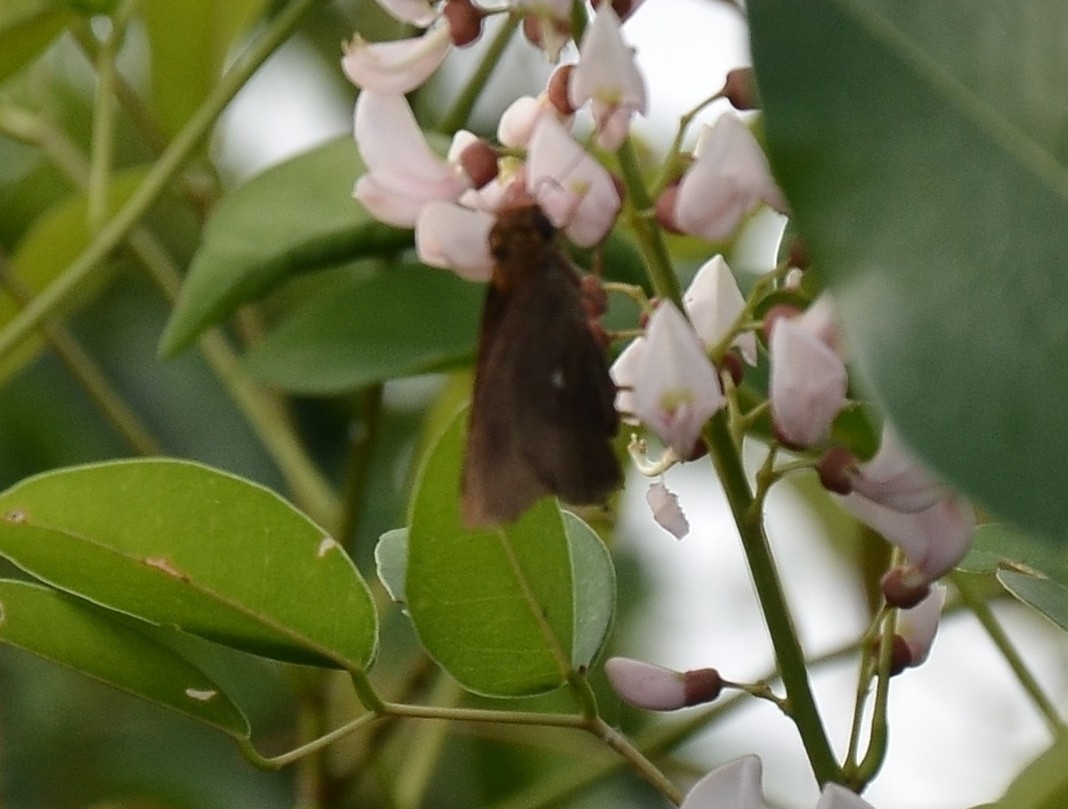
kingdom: Animalia
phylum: Arthropoda
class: Insecta
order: Lepidoptera
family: Hesperiidae
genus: Hasora
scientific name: Hasora badra
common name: Common awl
